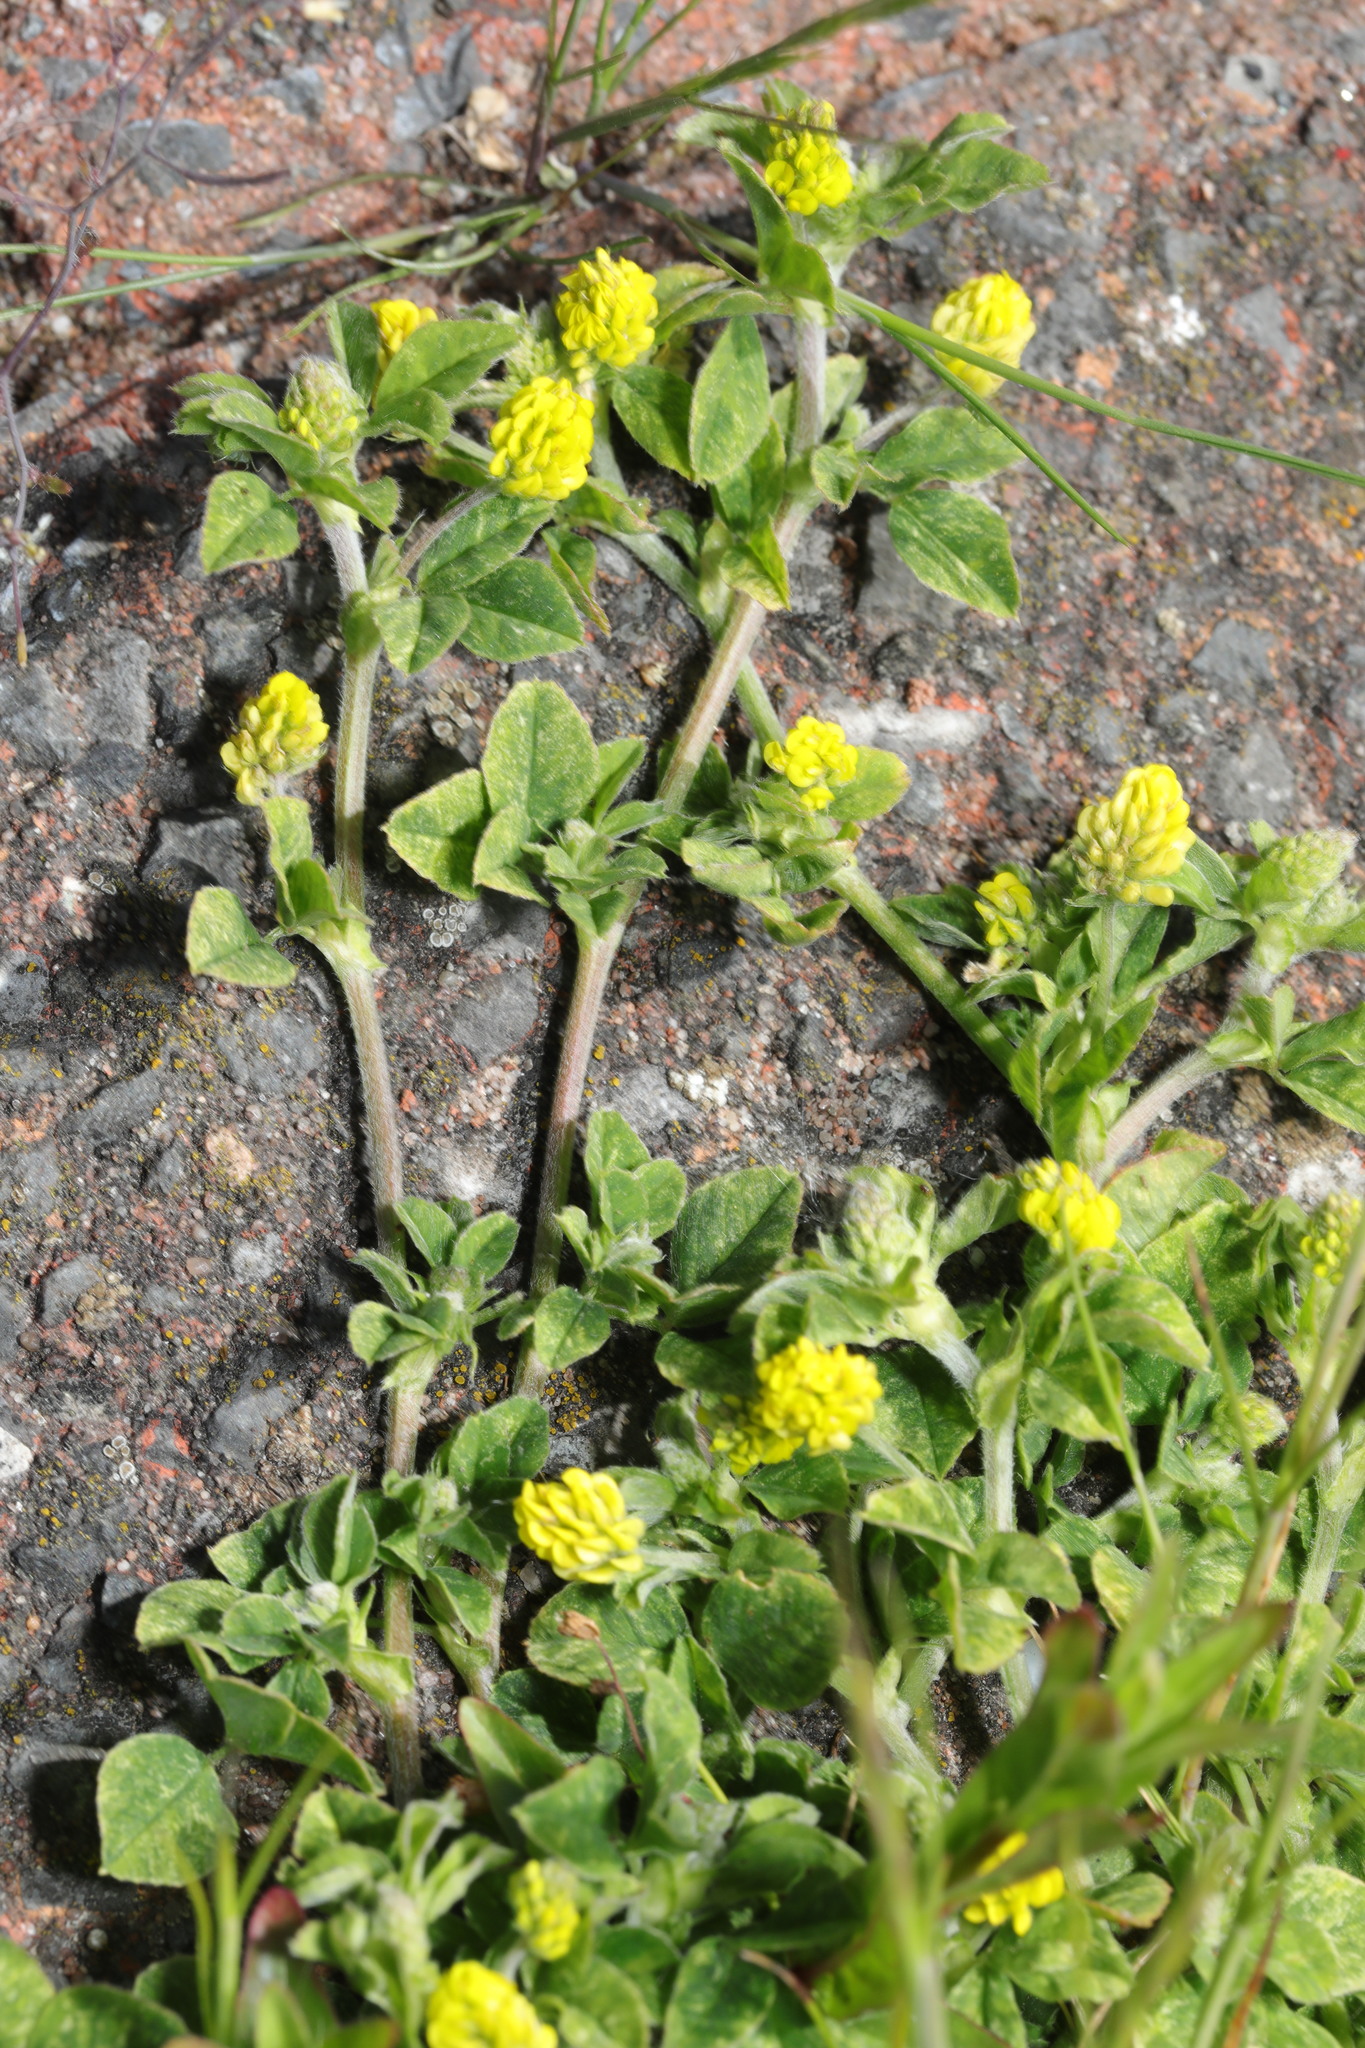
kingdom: Plantae
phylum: Tracheophyta
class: Magnoliopsida
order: Fabales
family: Fabaceae
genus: Medicago
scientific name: Medicago lupulina
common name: Black medick
